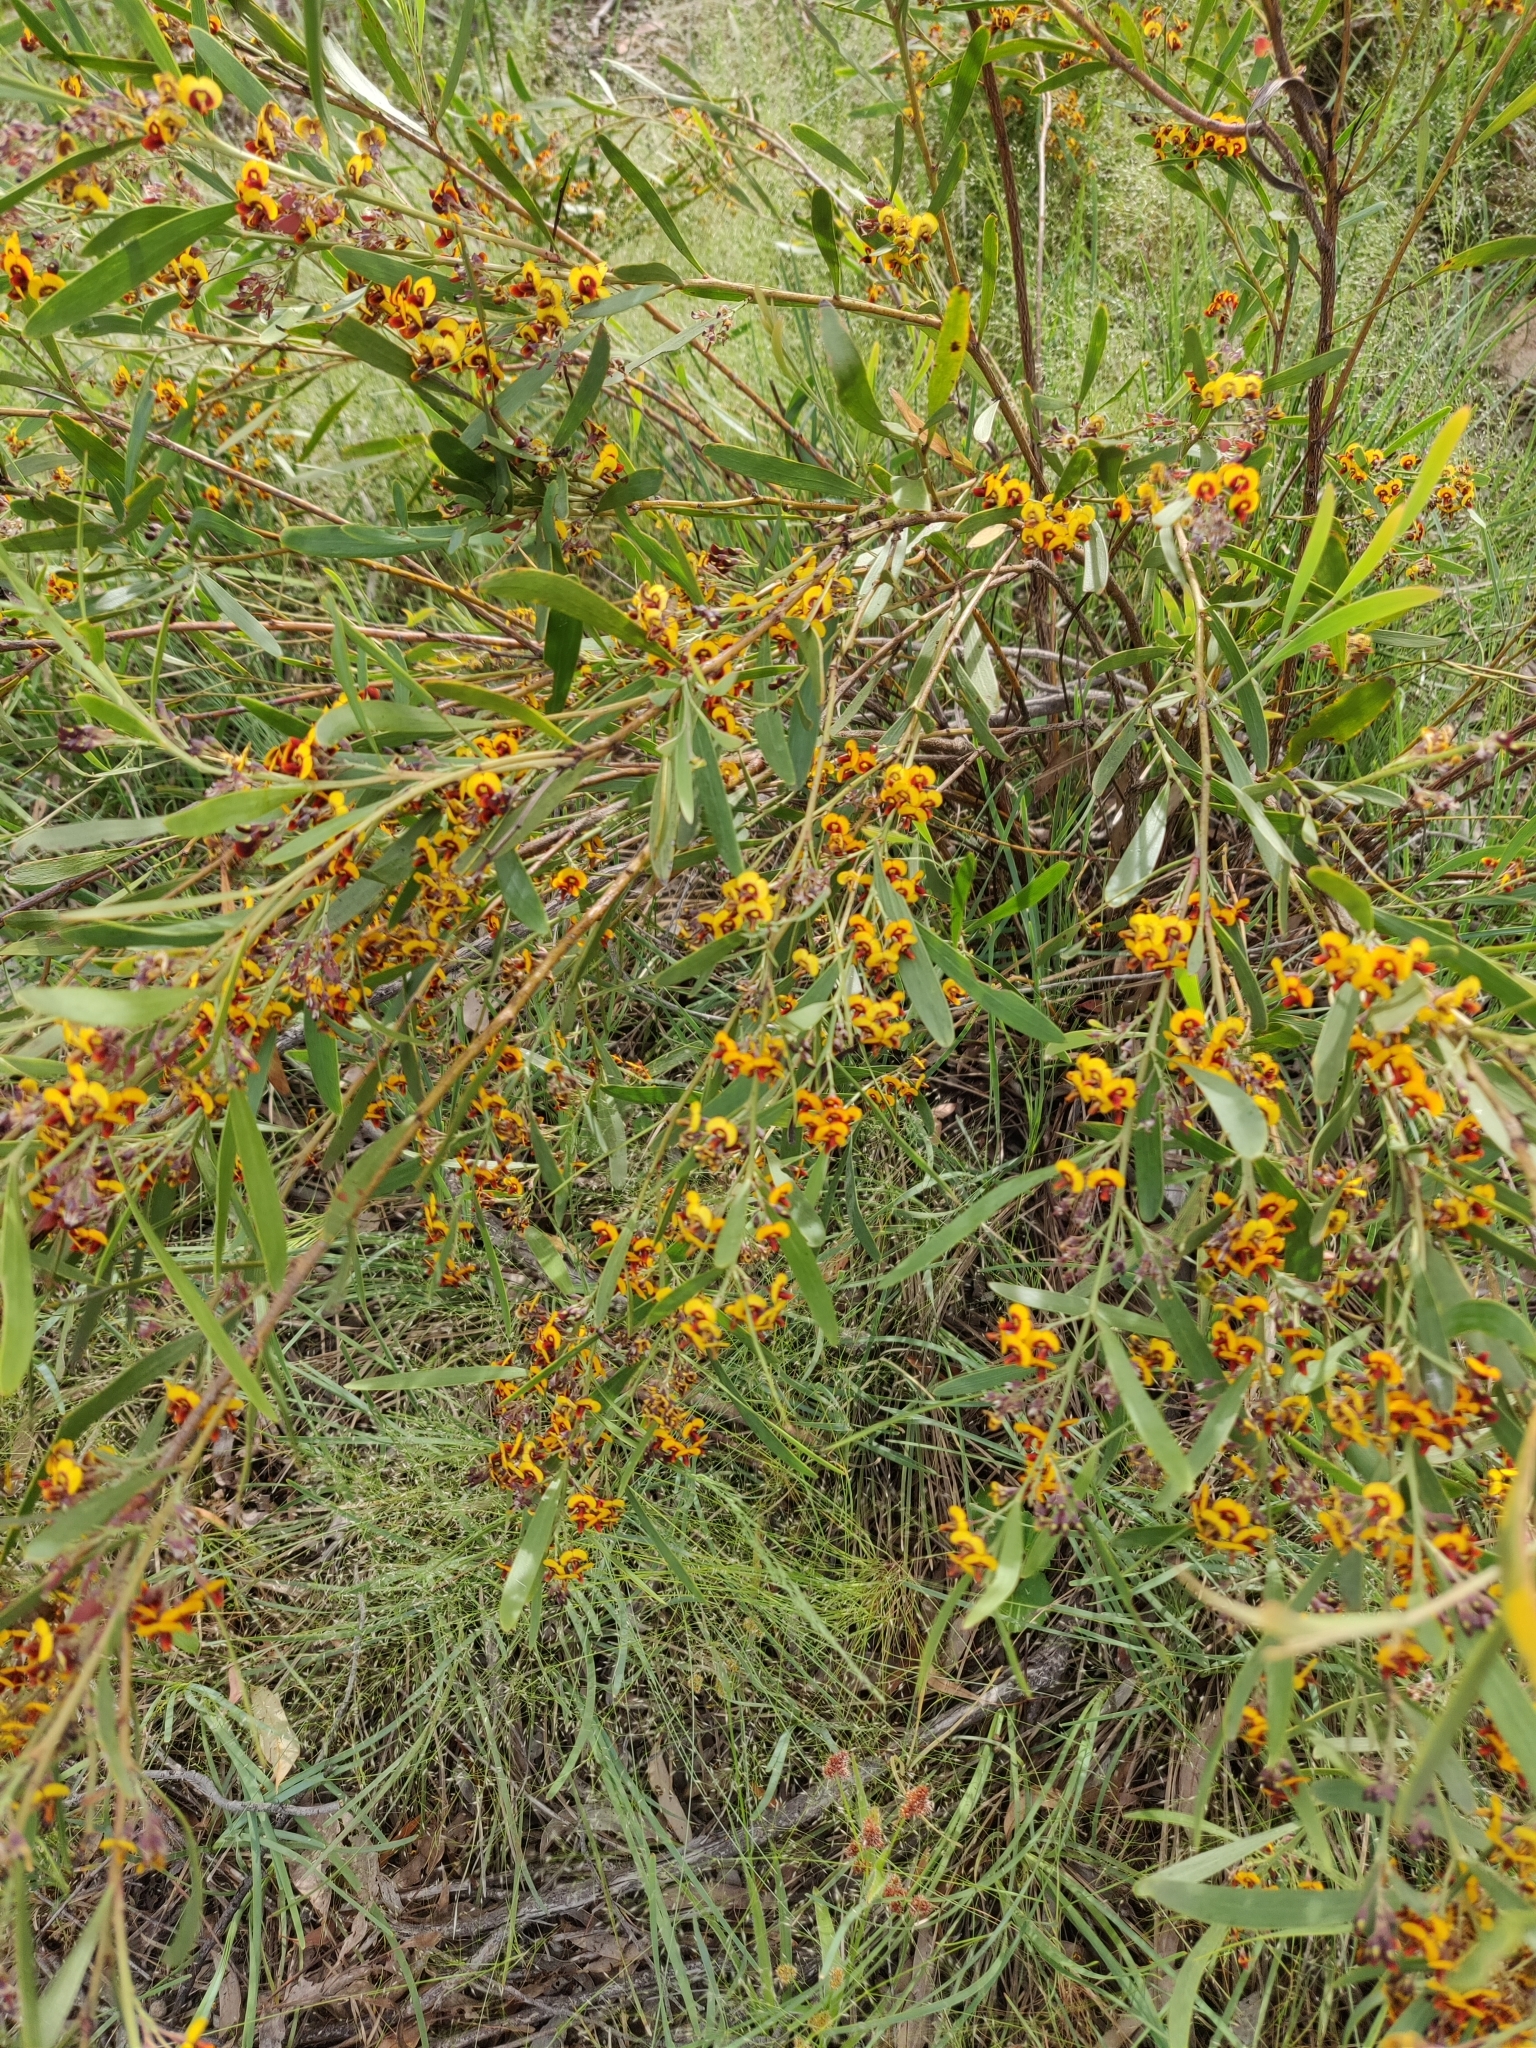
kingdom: Plantae
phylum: Tracheophyta
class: Magnoliopsida
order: Fabales
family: Fabaceae
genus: Daviesia
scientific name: Daviesia mimosoides
